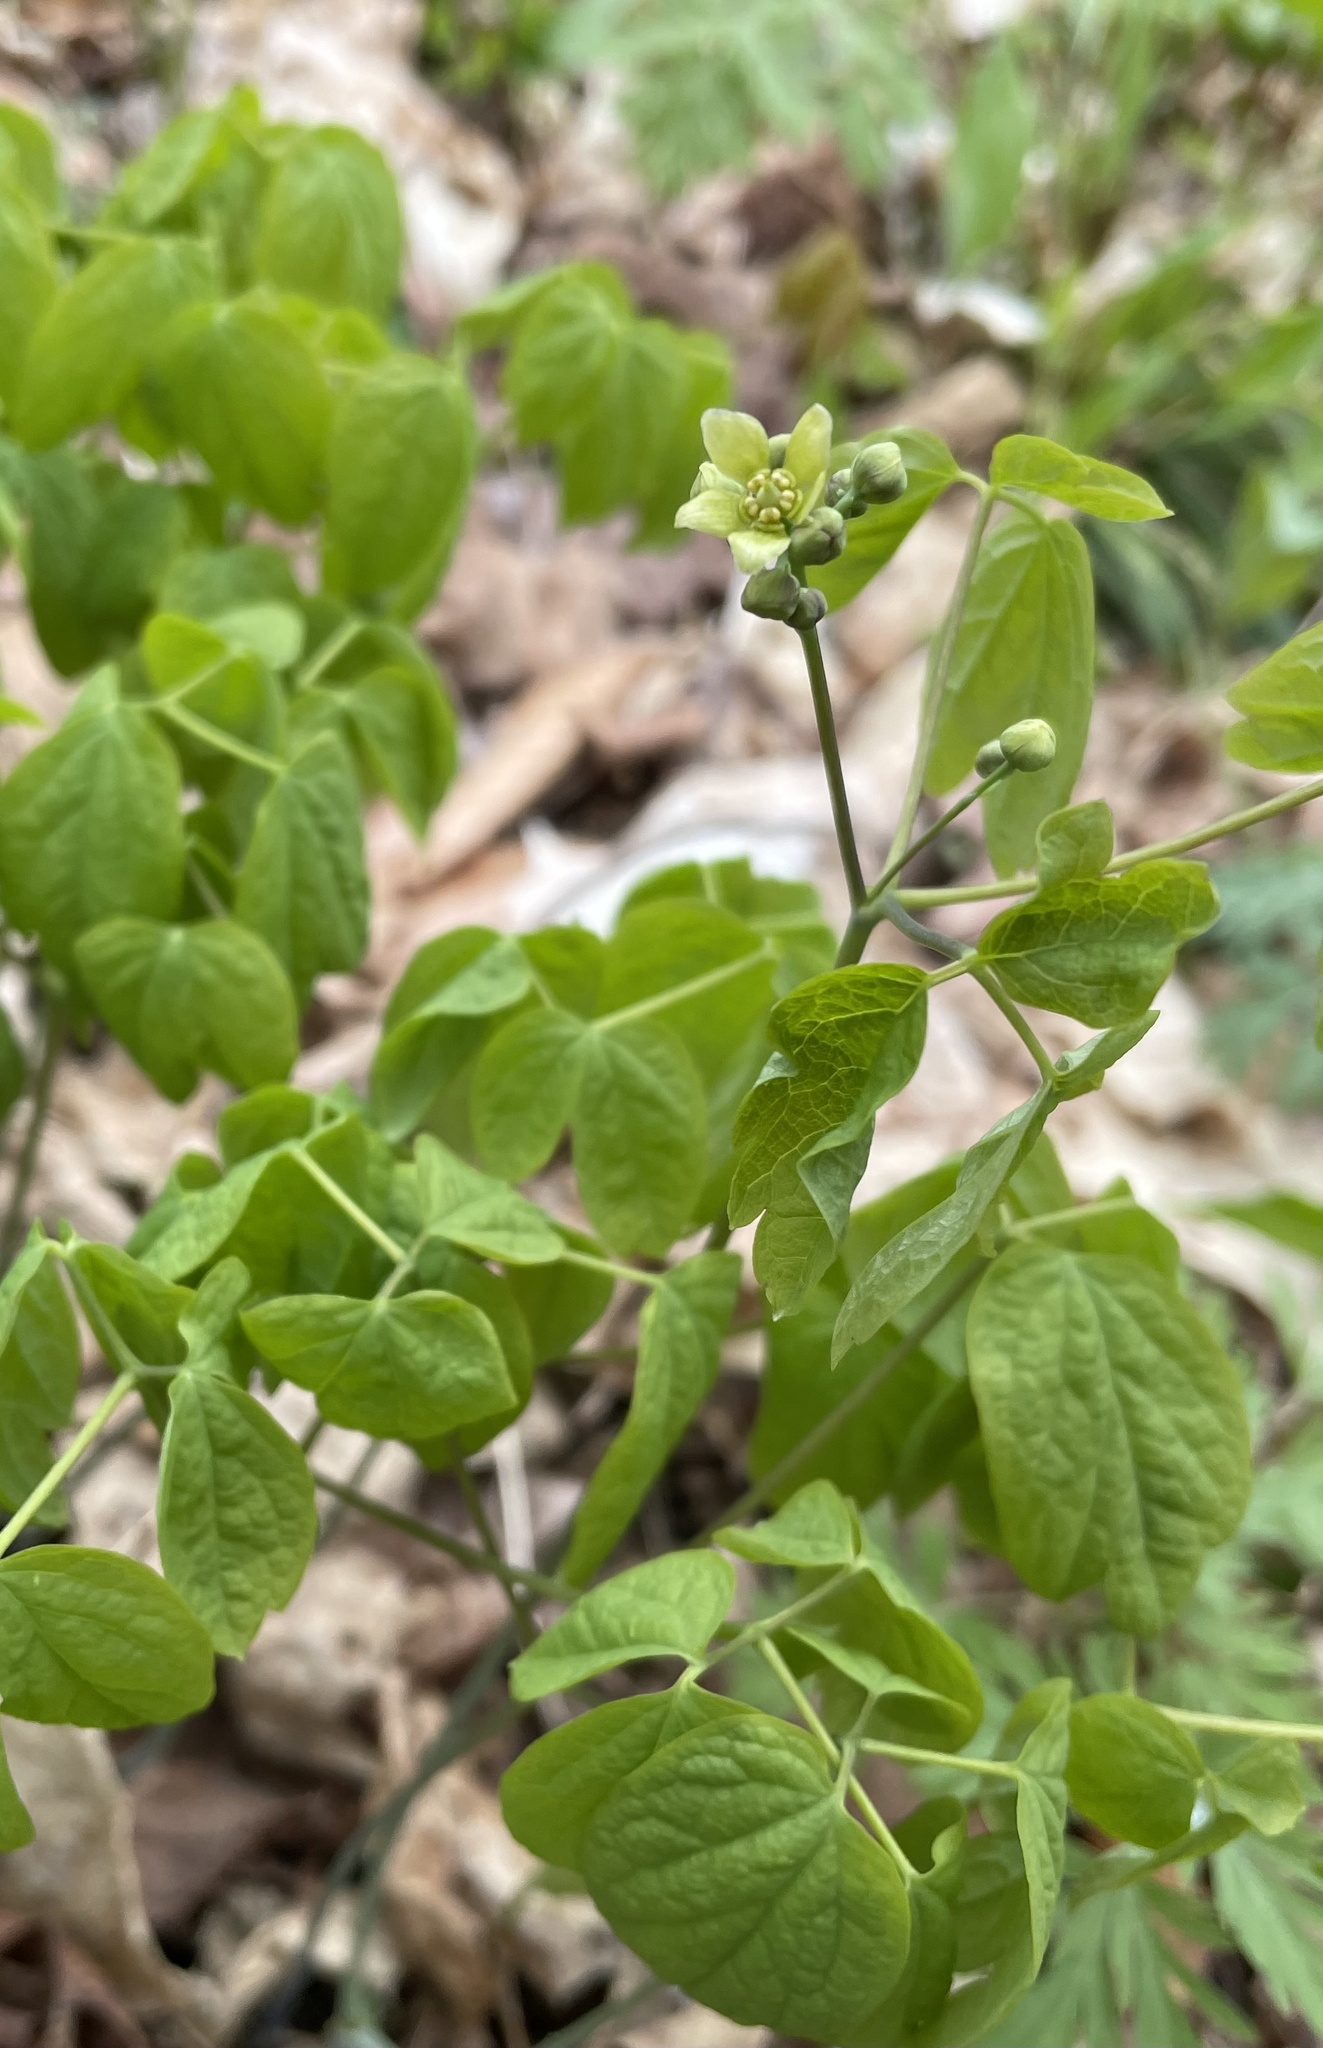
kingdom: Plantae
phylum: Tracheophyta
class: Magnoliopsida
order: Ranunculales
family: Berberidaceae
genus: Caulophyllum
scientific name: Caulophyllum thalictroides
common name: Blue cohosh
